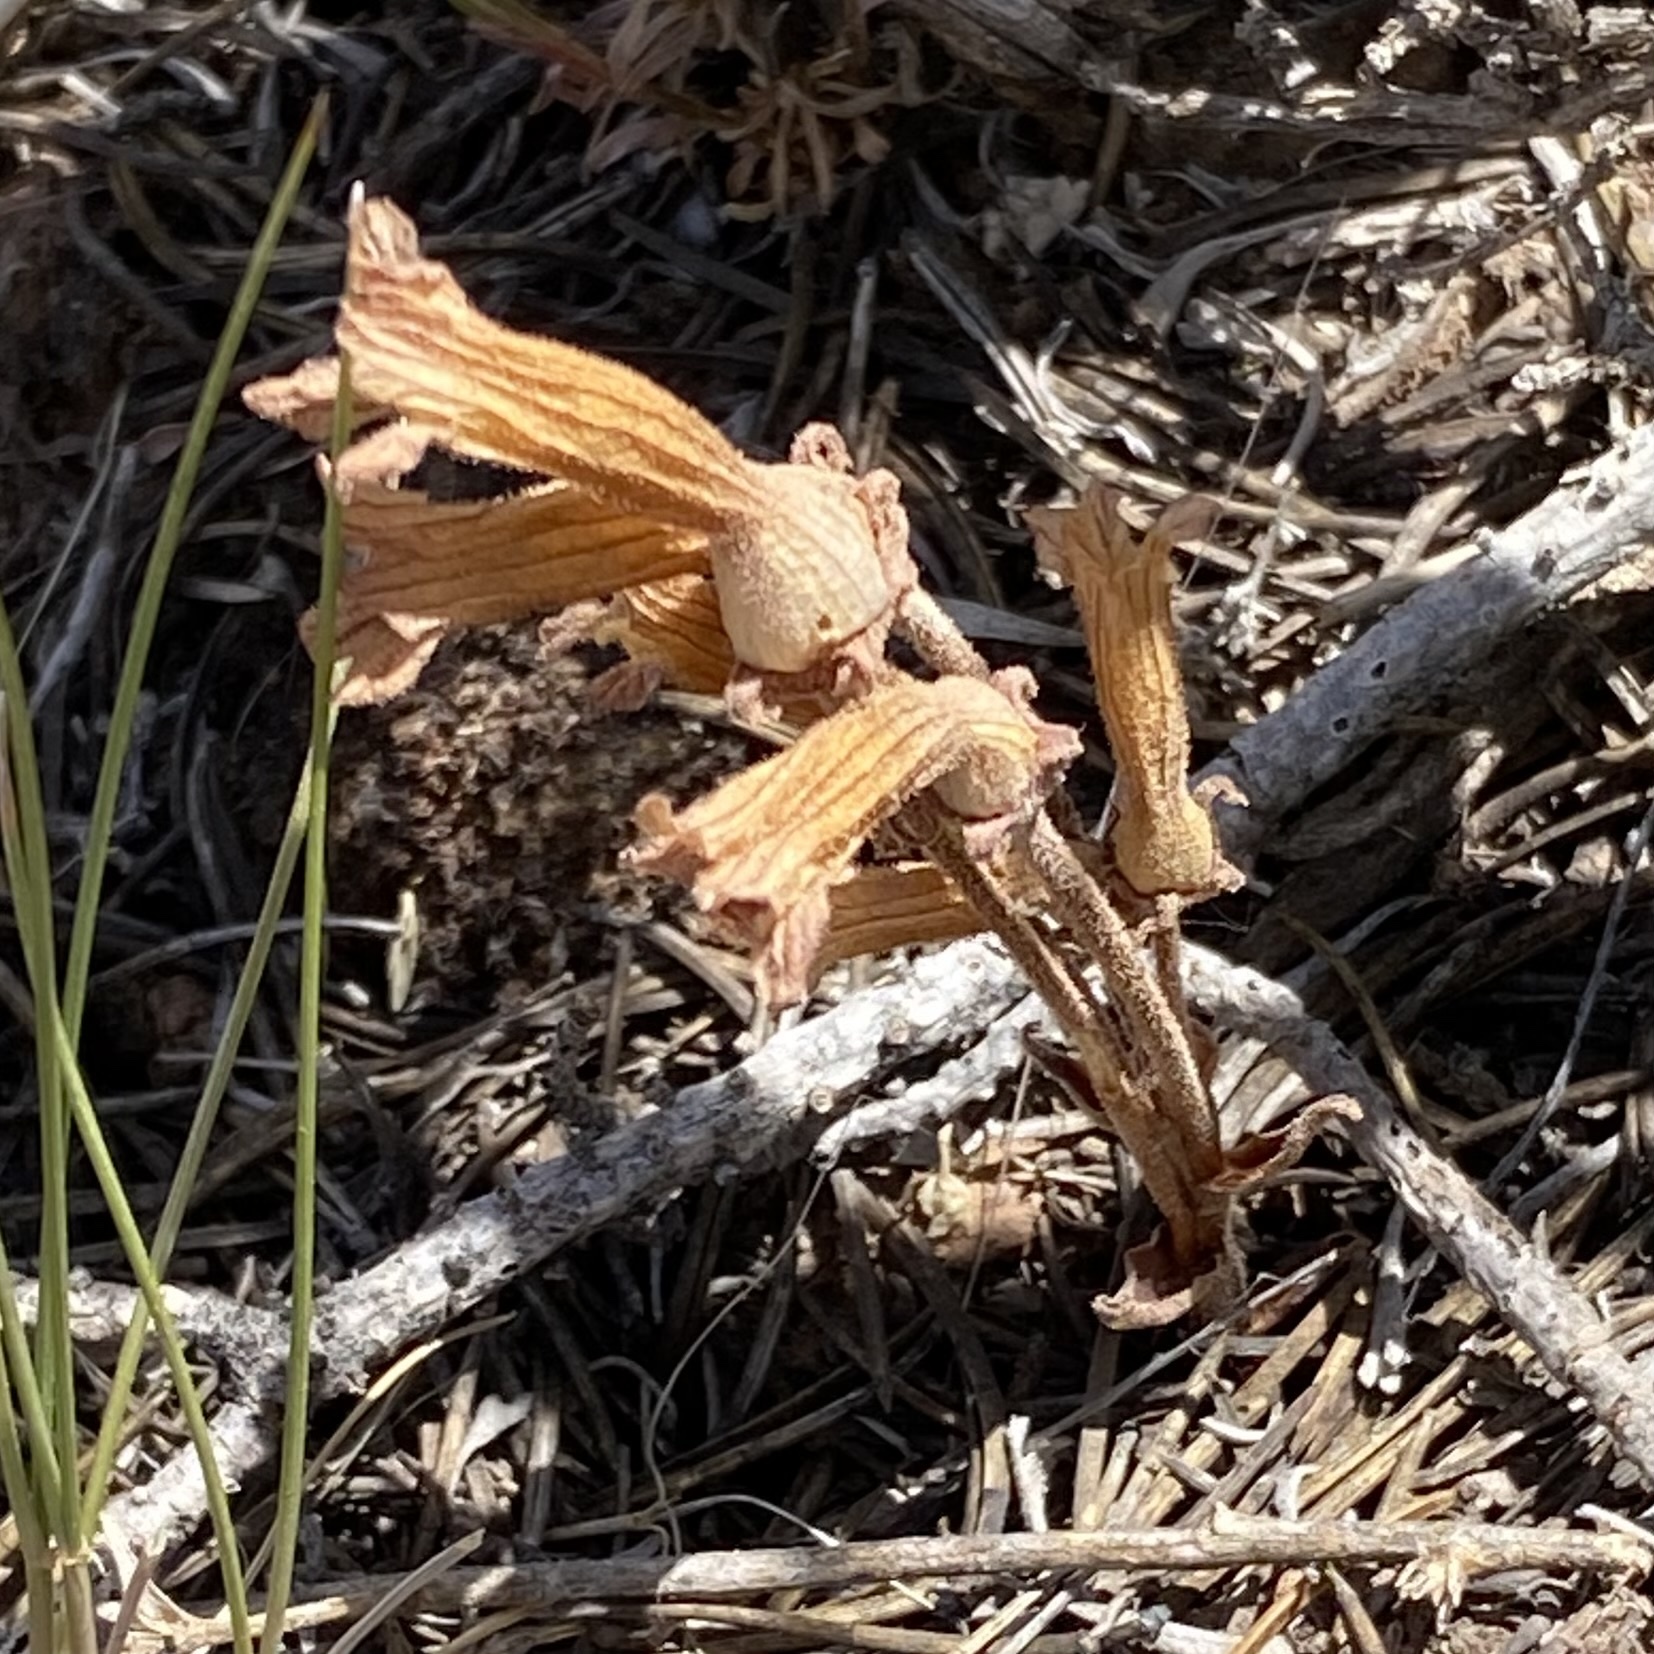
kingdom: Plantae
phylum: Tracheophyta
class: Magnoliopsida
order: Lamiales
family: Orobanchaceae
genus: Aphyllon
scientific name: Aphyllon fasciculatum
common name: Clustered broomrape
